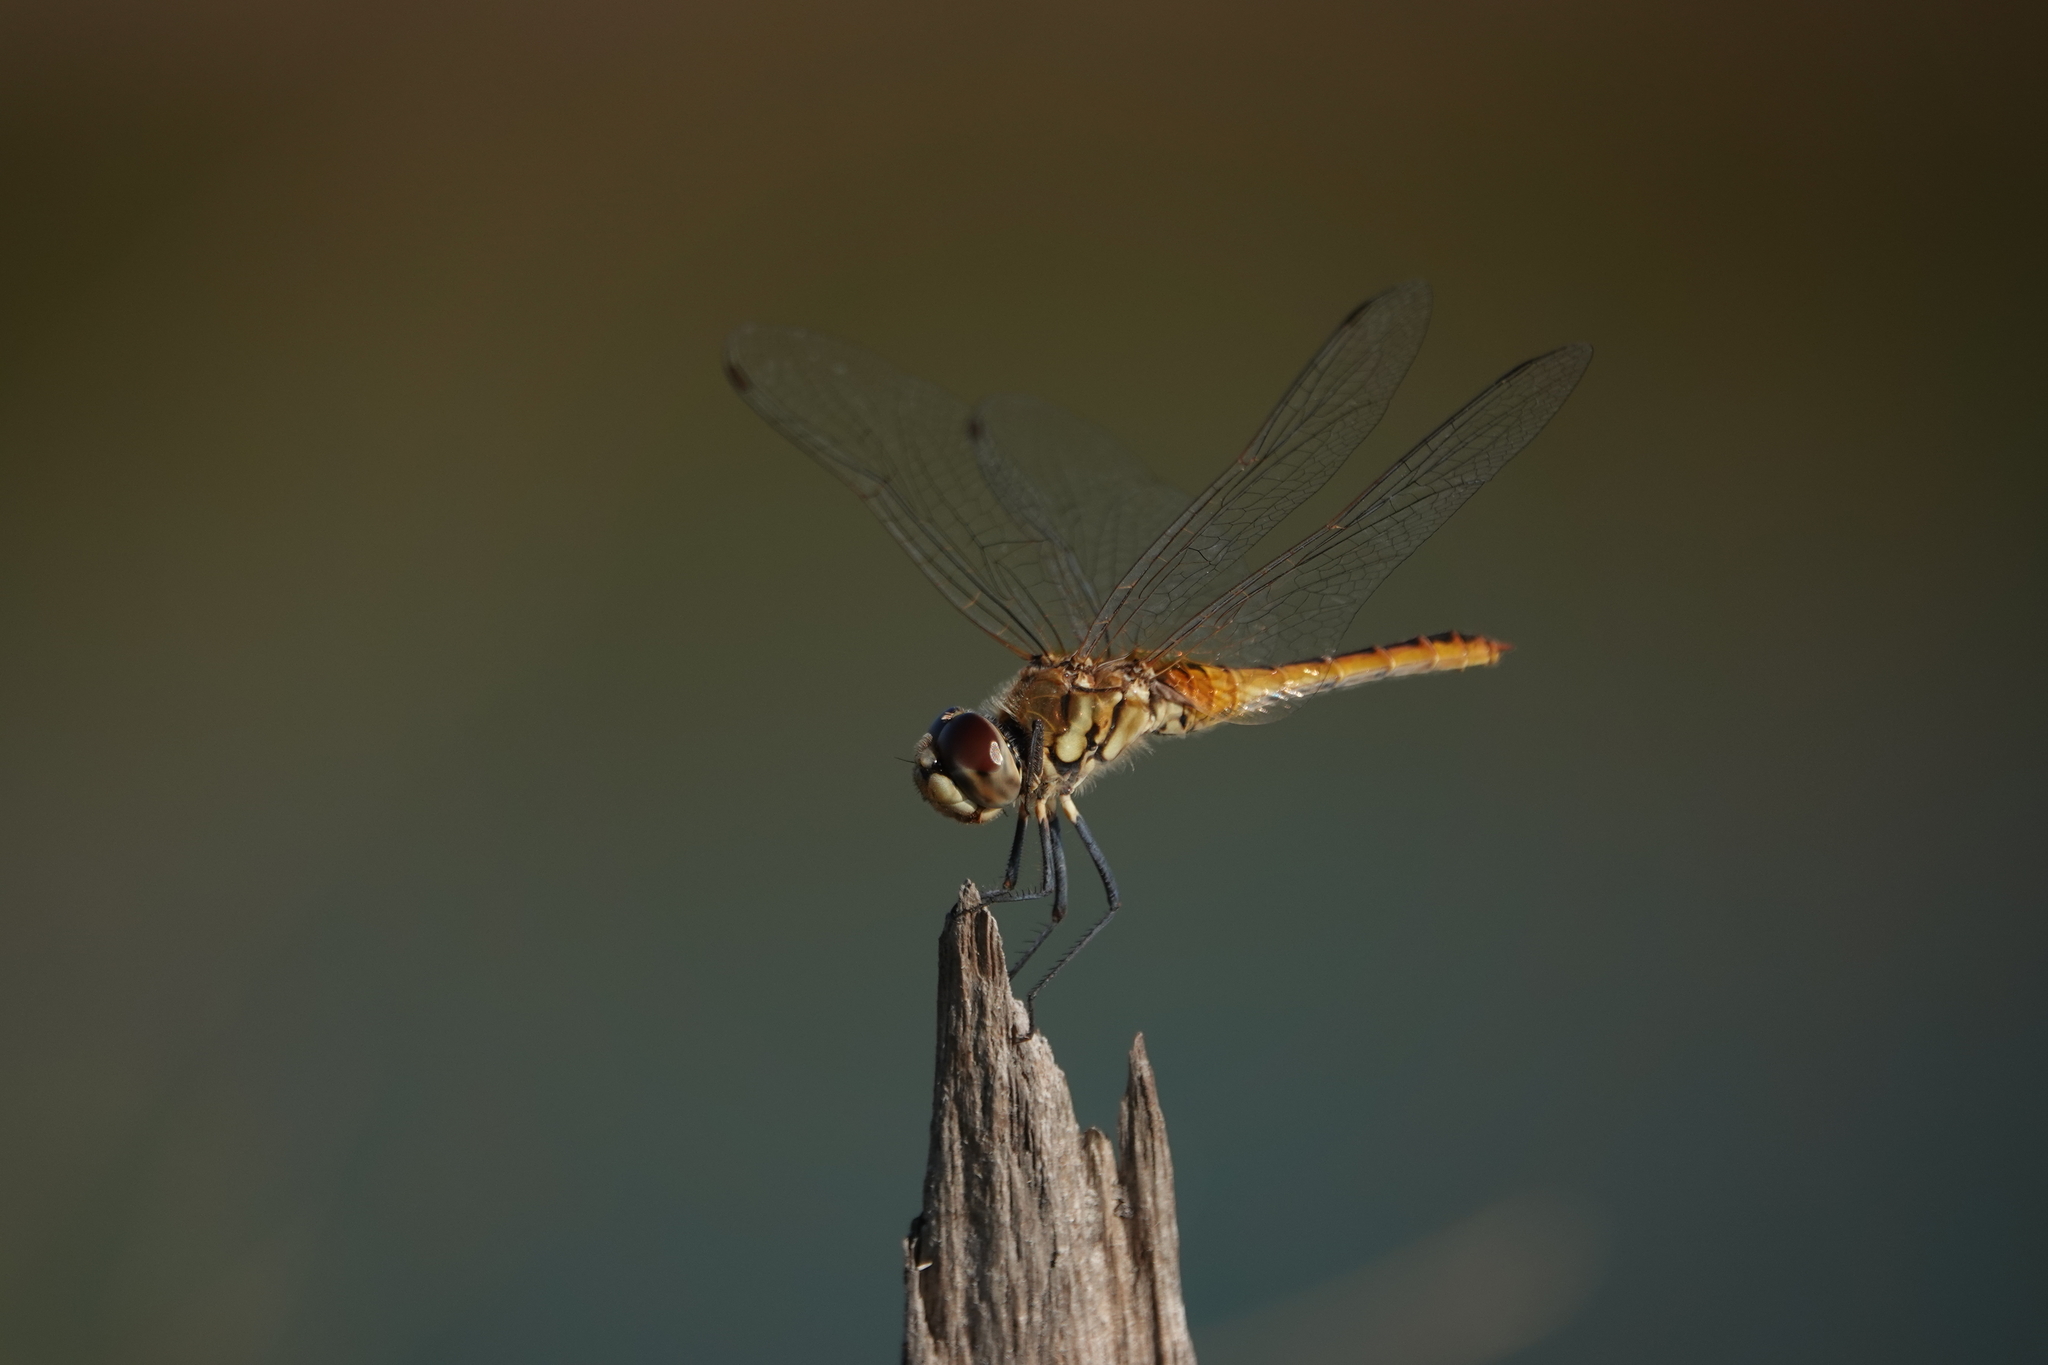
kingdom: Animalia
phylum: Arthropoda
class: Insecta
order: Odonata
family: Libellulidae
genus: Macrodiplax
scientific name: Macrodiplax cora
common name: Coastal glider
